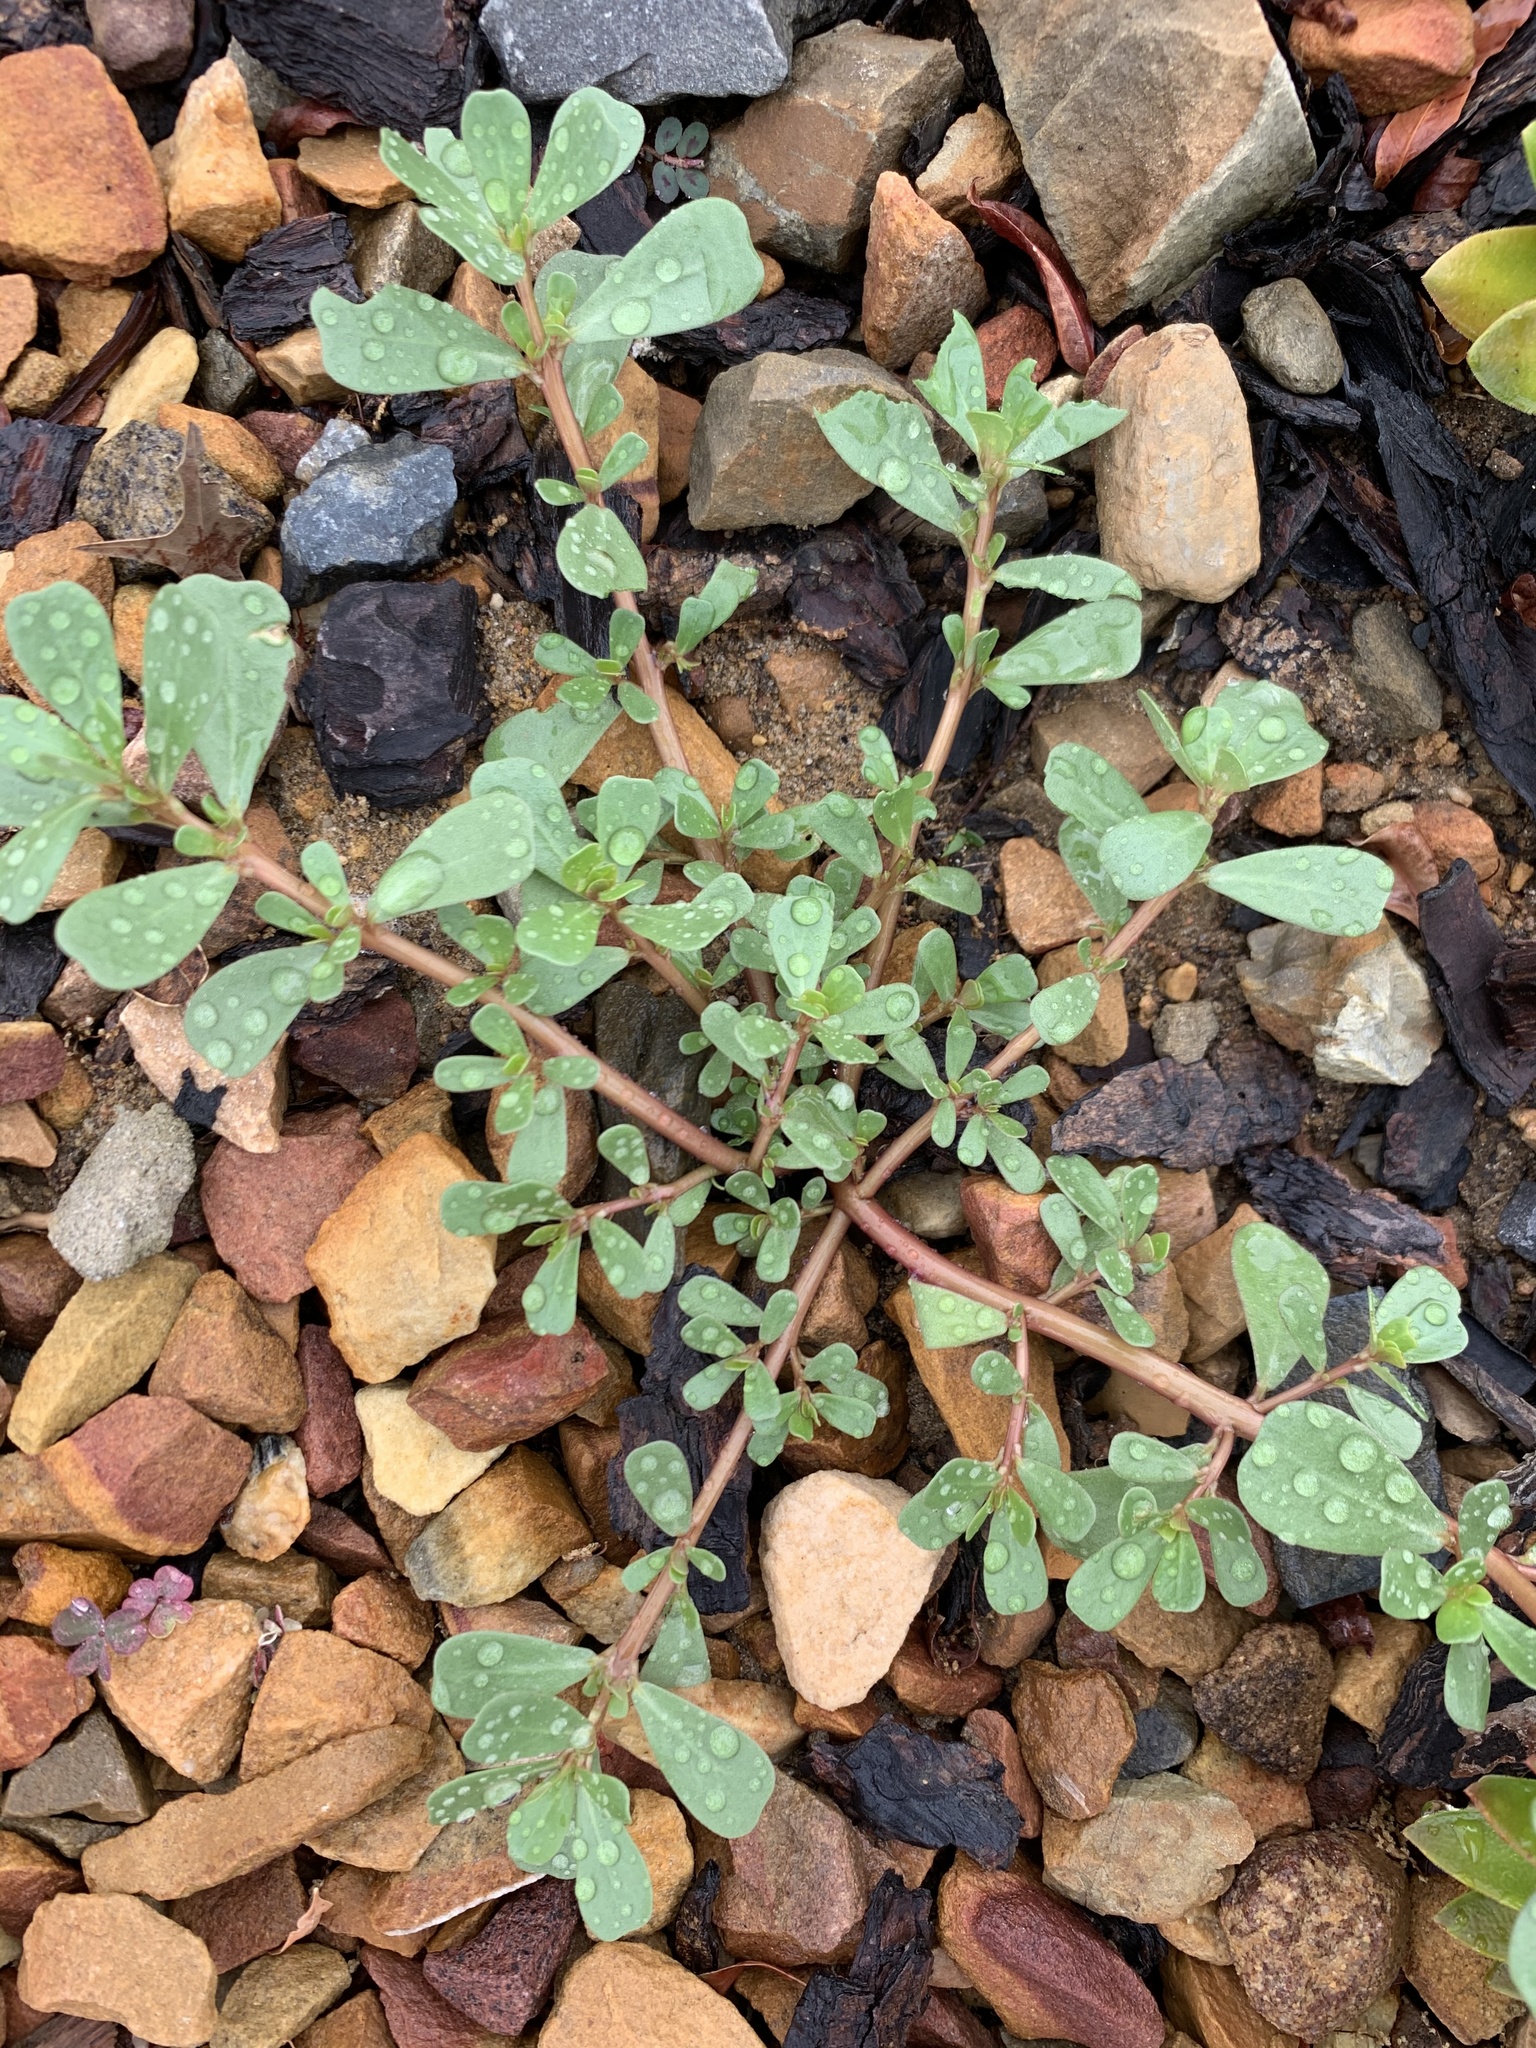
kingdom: Plantae
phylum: Tracheophyta
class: Magnoliopsida
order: Caryophyllales
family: Portulacaceae
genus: Portulaca
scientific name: Portulaca oleracea
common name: Common purslane
